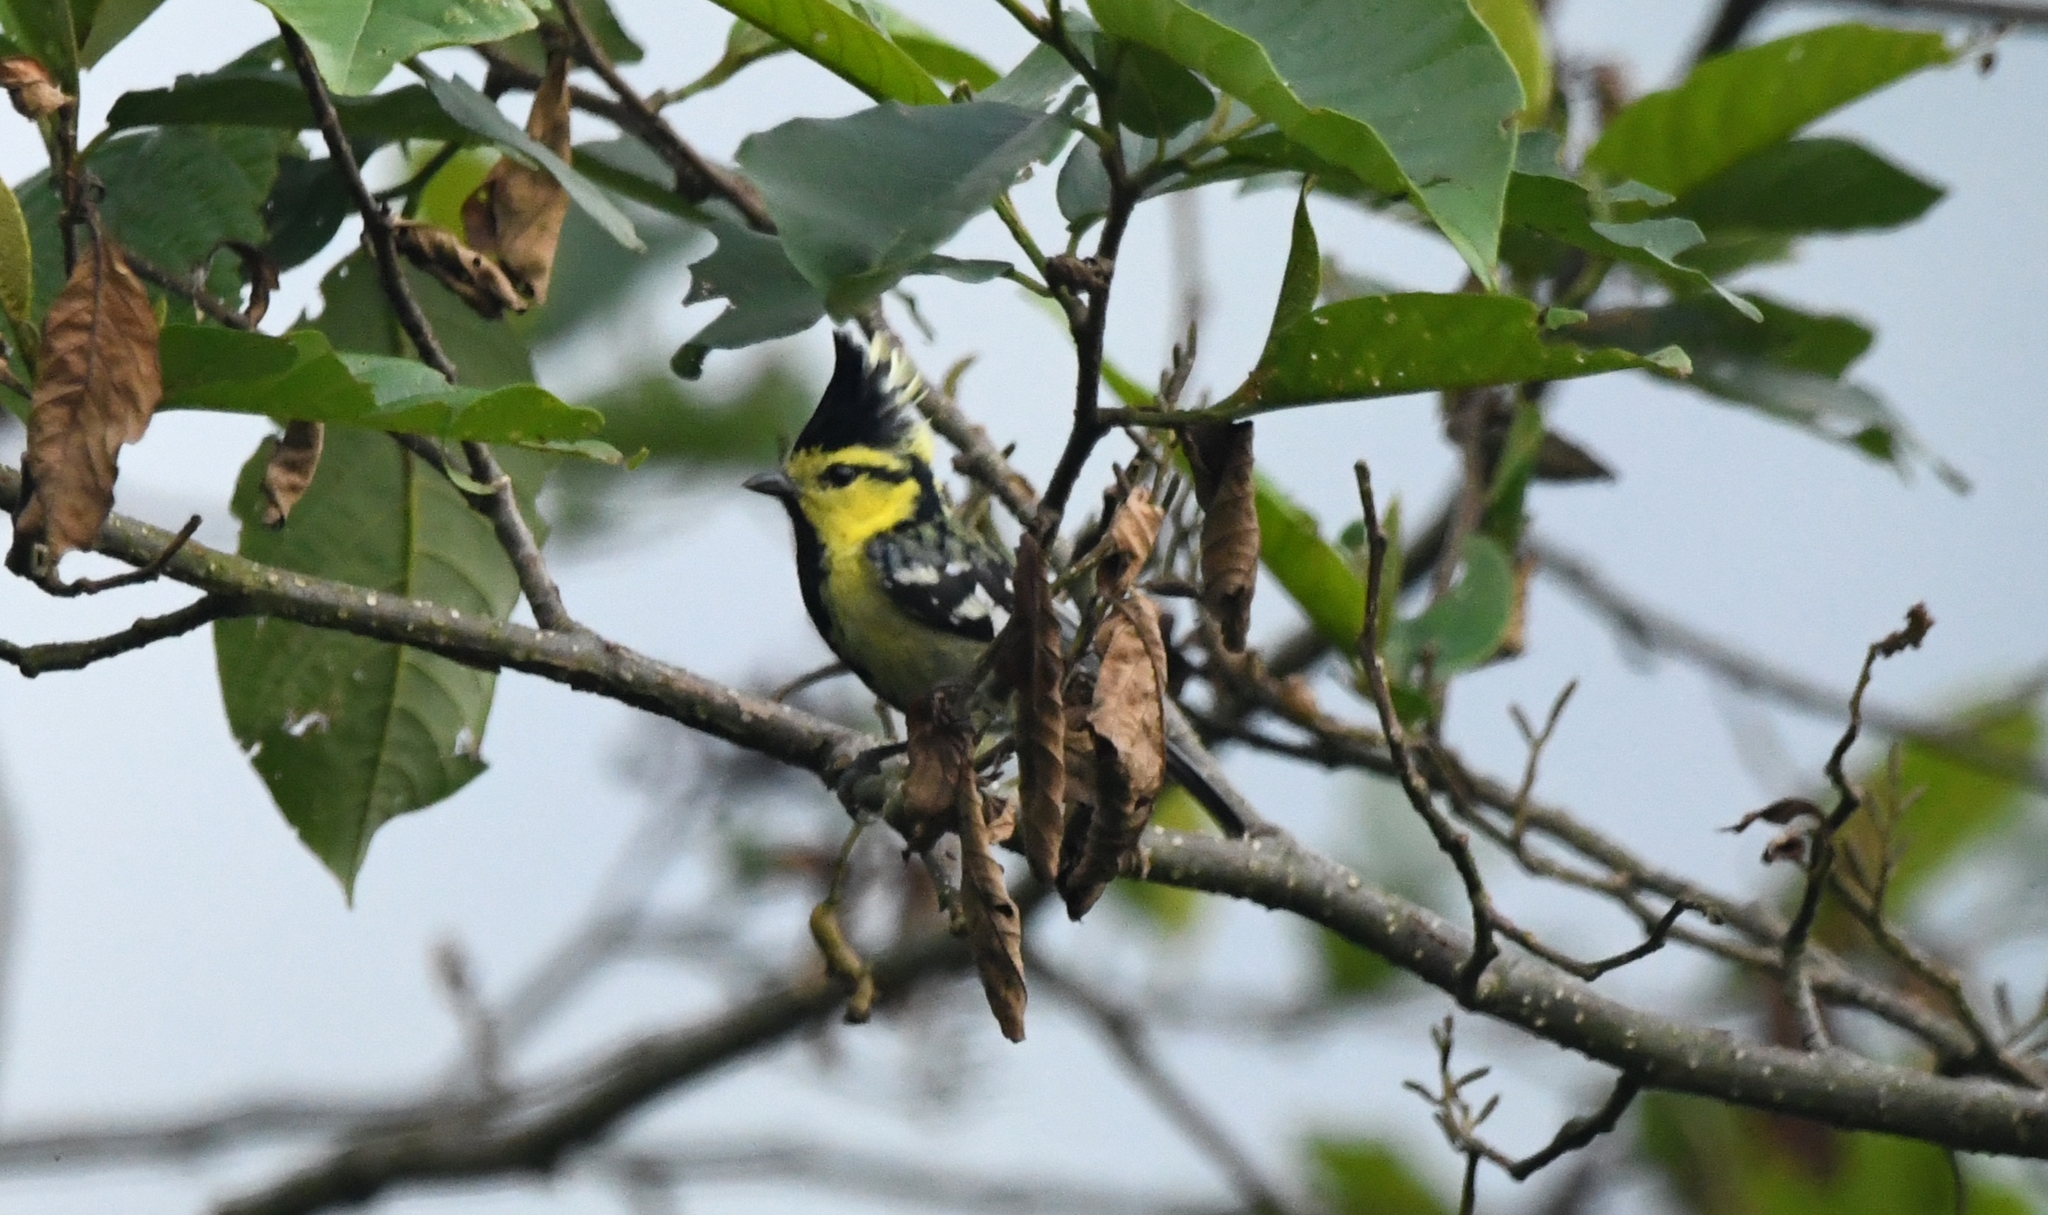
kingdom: Animalia
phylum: Chordata
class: Aves
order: Passeriformes
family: Paridae
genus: Parus
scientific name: Parus spilonotus
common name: Yellow-cheeked tit
